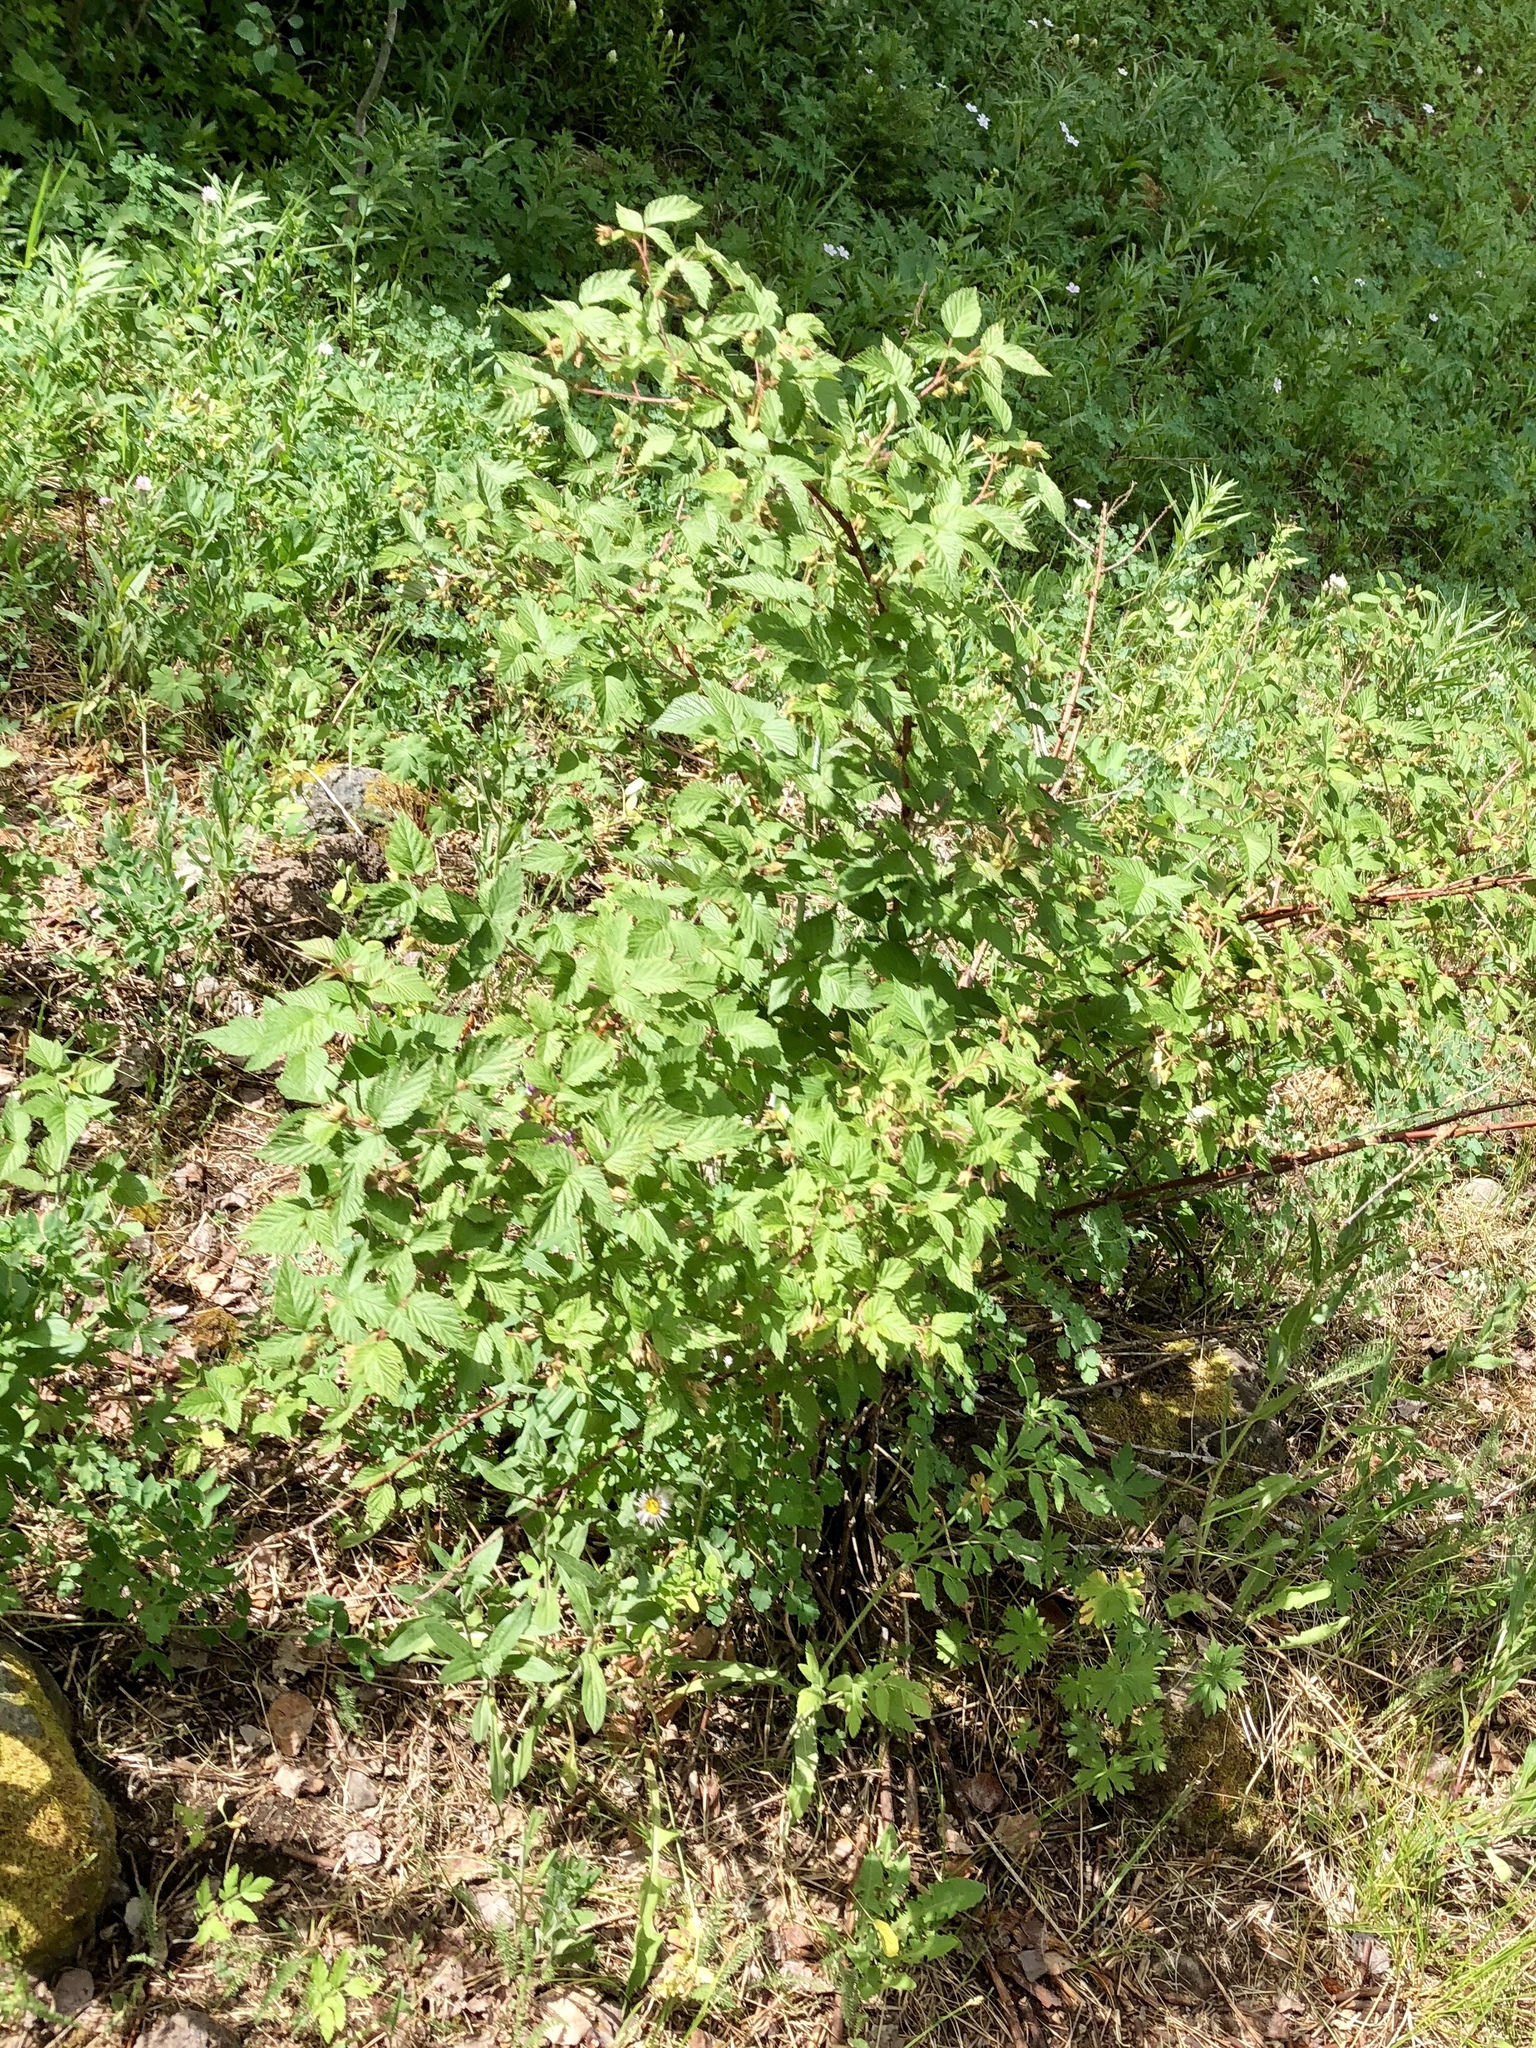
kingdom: Plantae
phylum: Tracheophyta
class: Magnoliopsida
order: Cornales
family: Cornaceae
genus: Cornus
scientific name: Cornus sericea
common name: Red-osier dogwood
